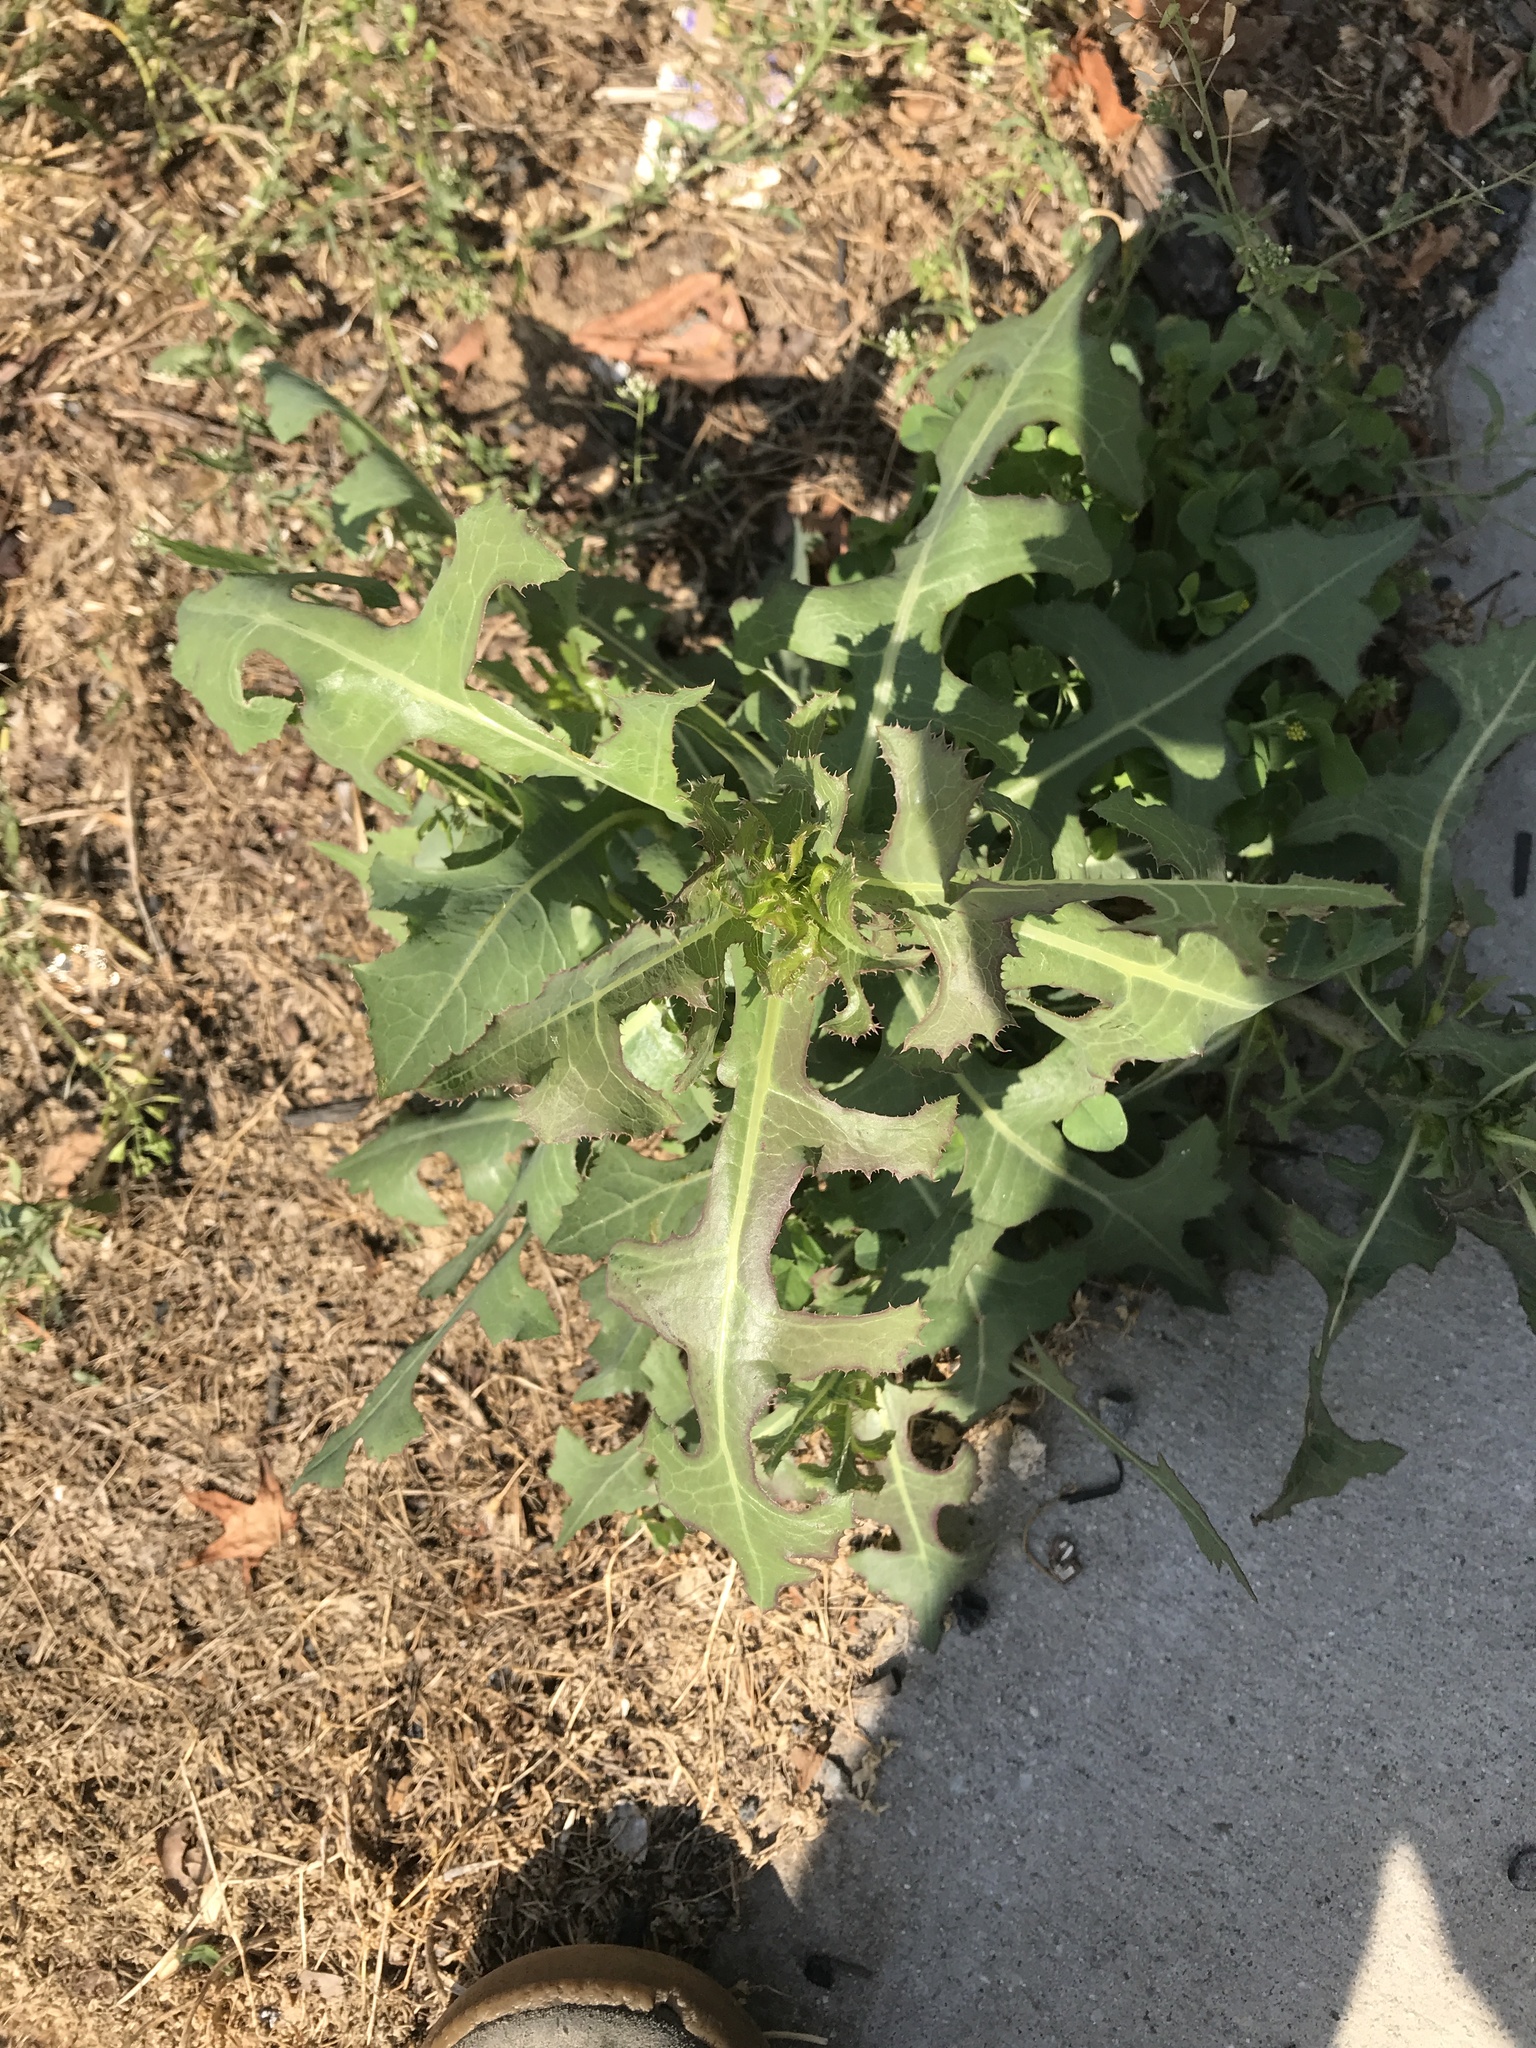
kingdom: Plantae
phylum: Tracheophyta
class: Magnoliopsida
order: Asterales
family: Asteraceae
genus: Lactuca
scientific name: Lactuca serriola
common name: Prickly lettuce
